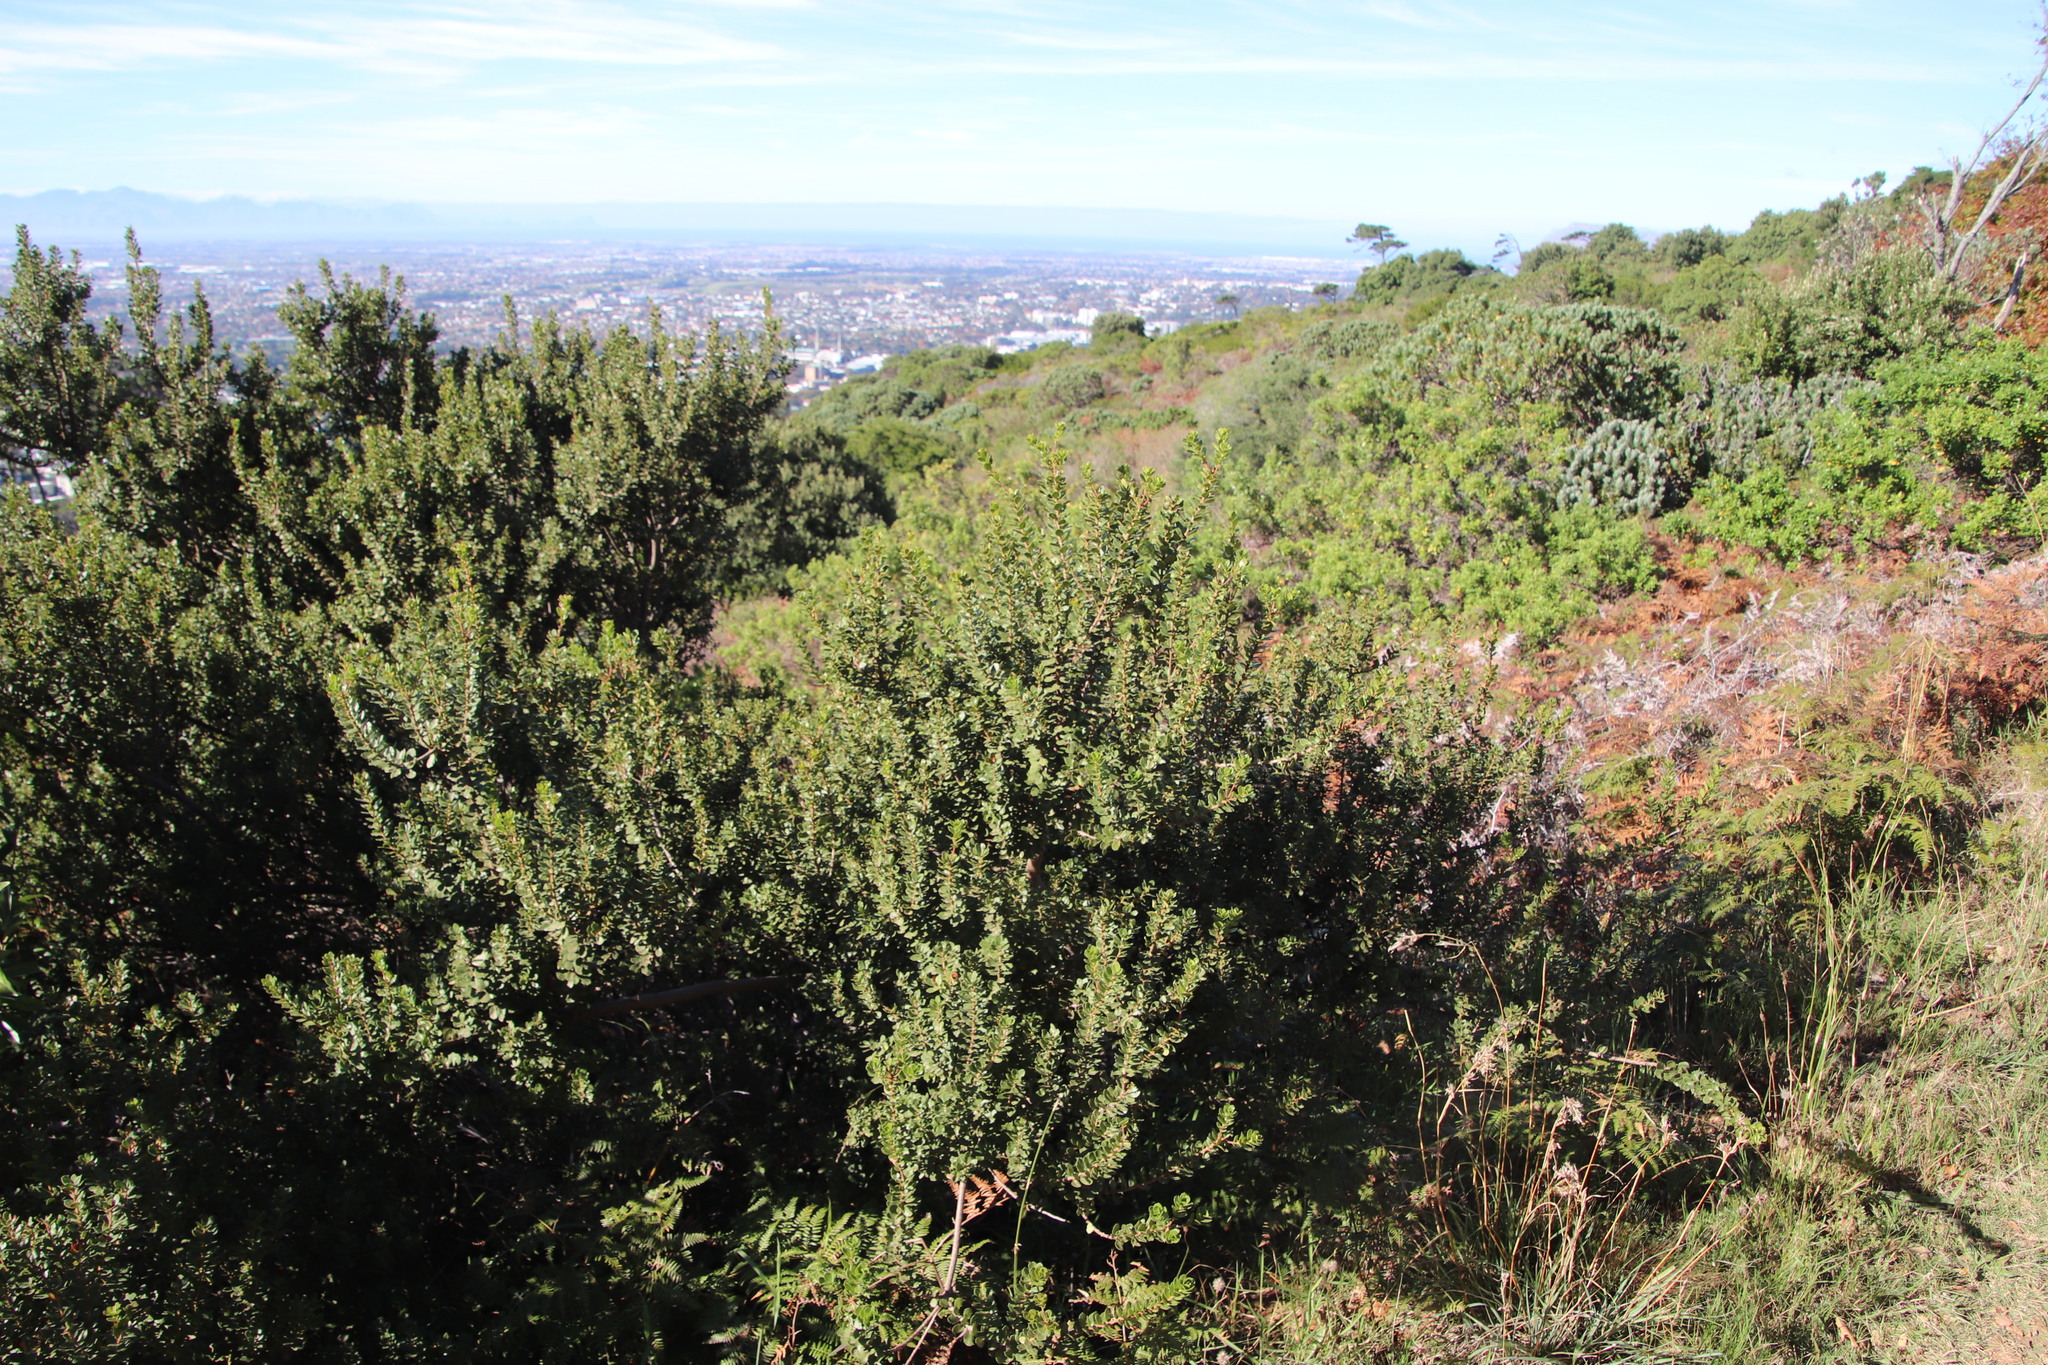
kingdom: Plantae
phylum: Tracheophyta
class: Magnoliopsida
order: Fagales
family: Myricaceae
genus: Morella
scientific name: Morella kraussiana
